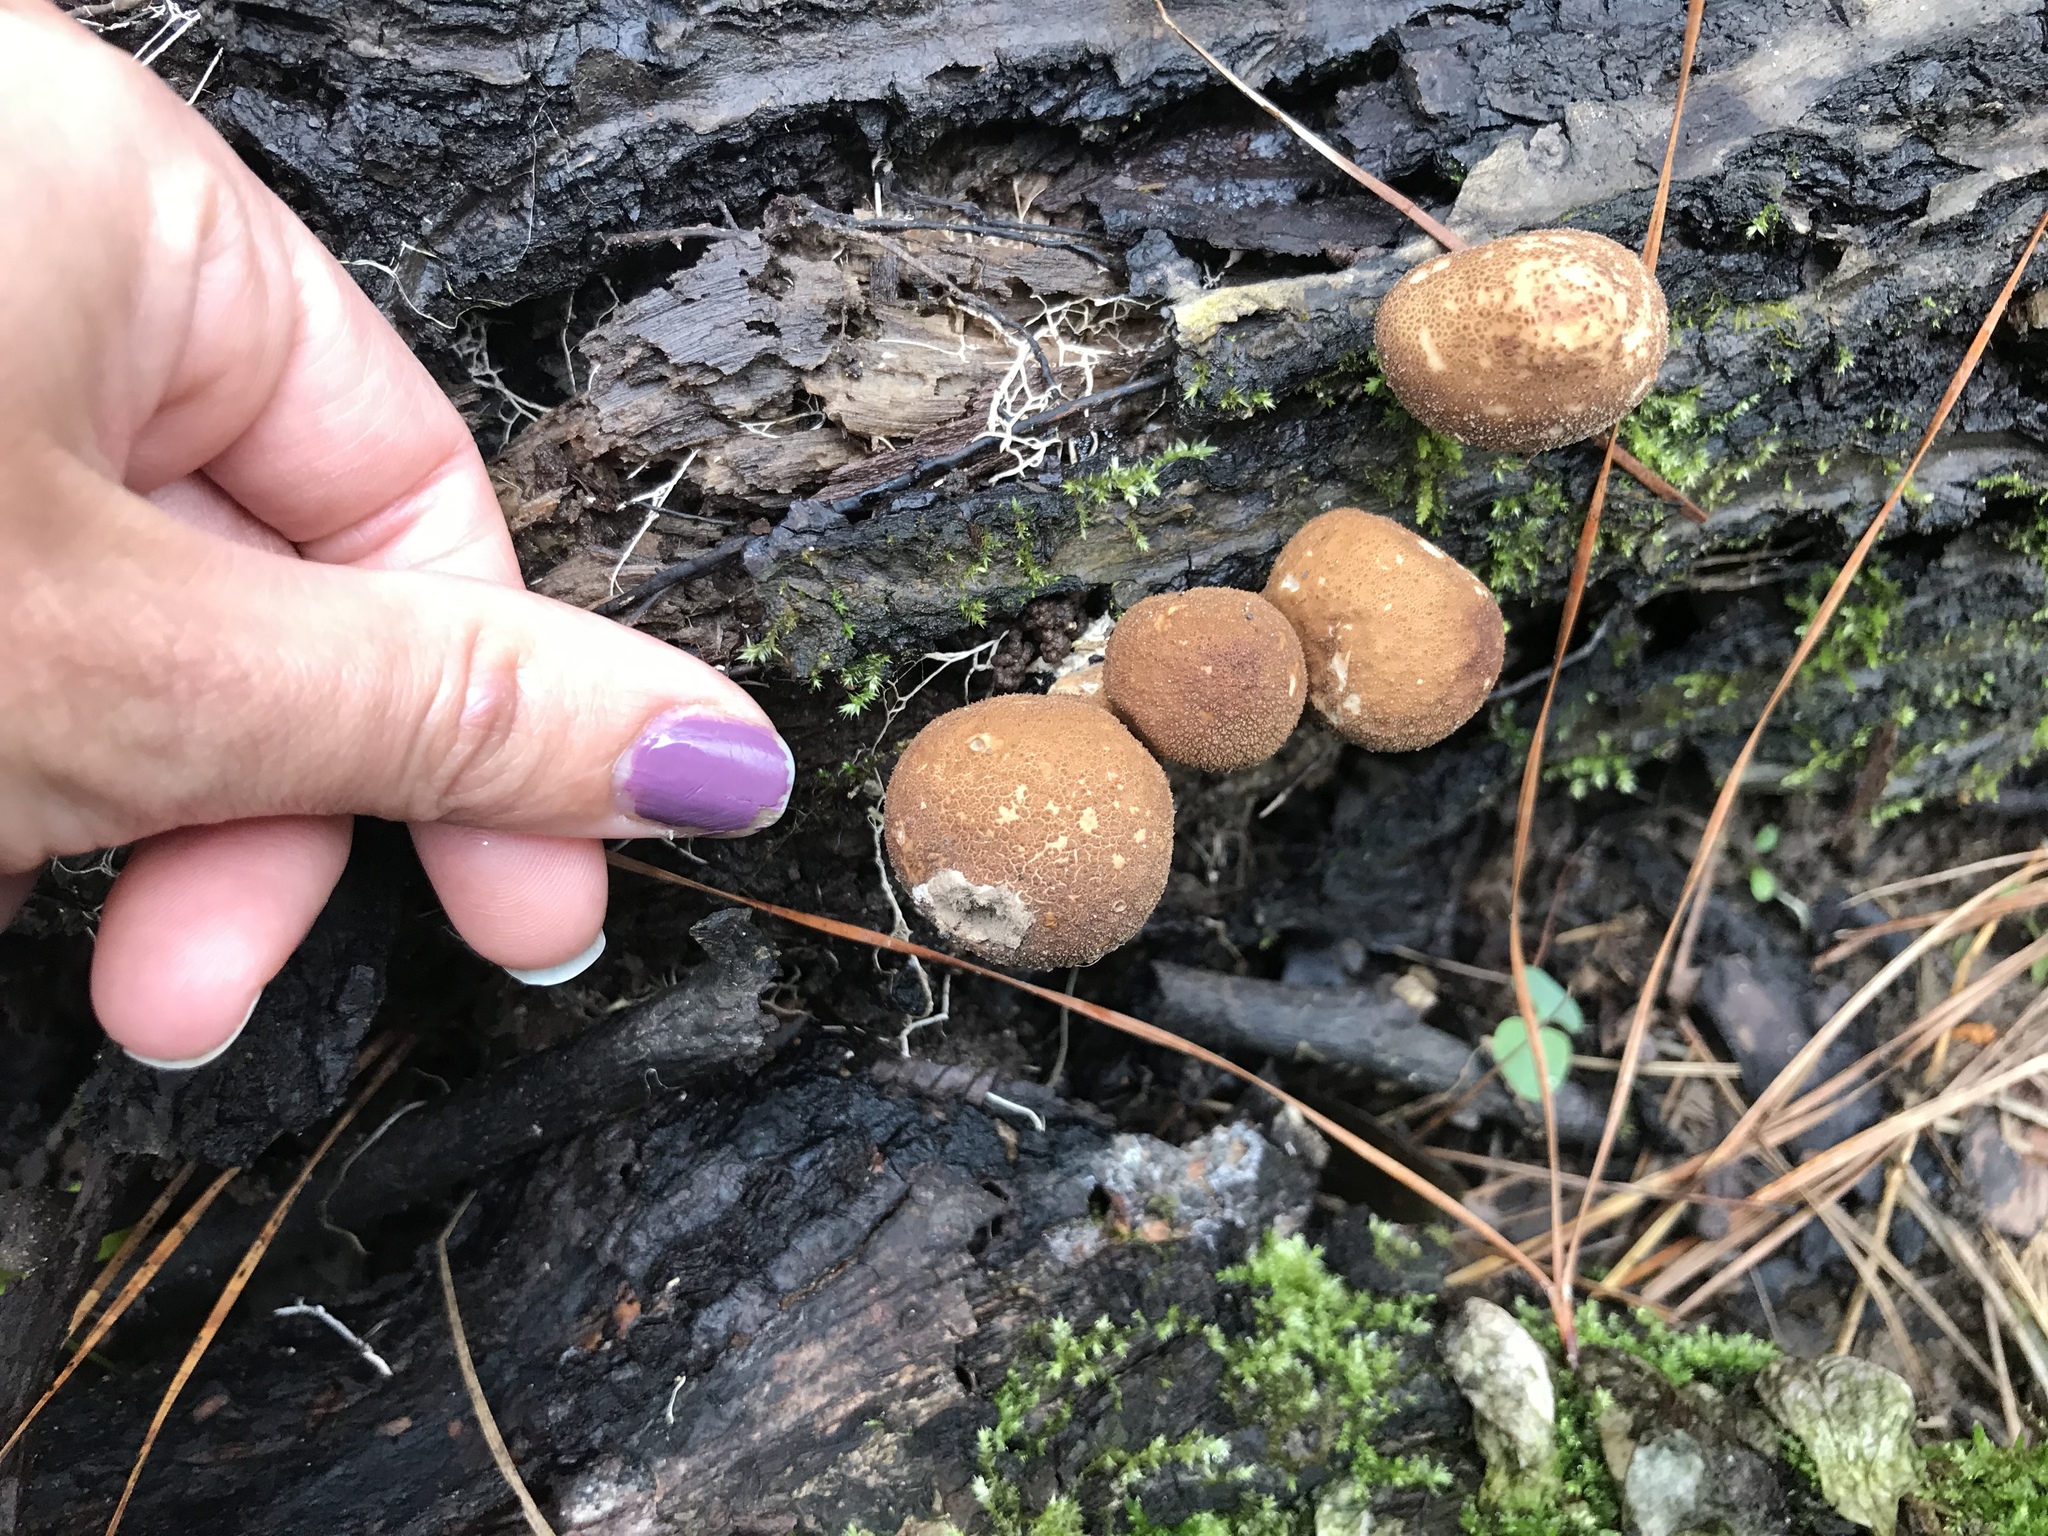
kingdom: Fungi
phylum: Basidiomycota
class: Agaricomycetes
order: Agaricales
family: Lycoperdaceae
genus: Apioperdon
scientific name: Apioperdon pyriforme
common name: Pear-shaped puffball
